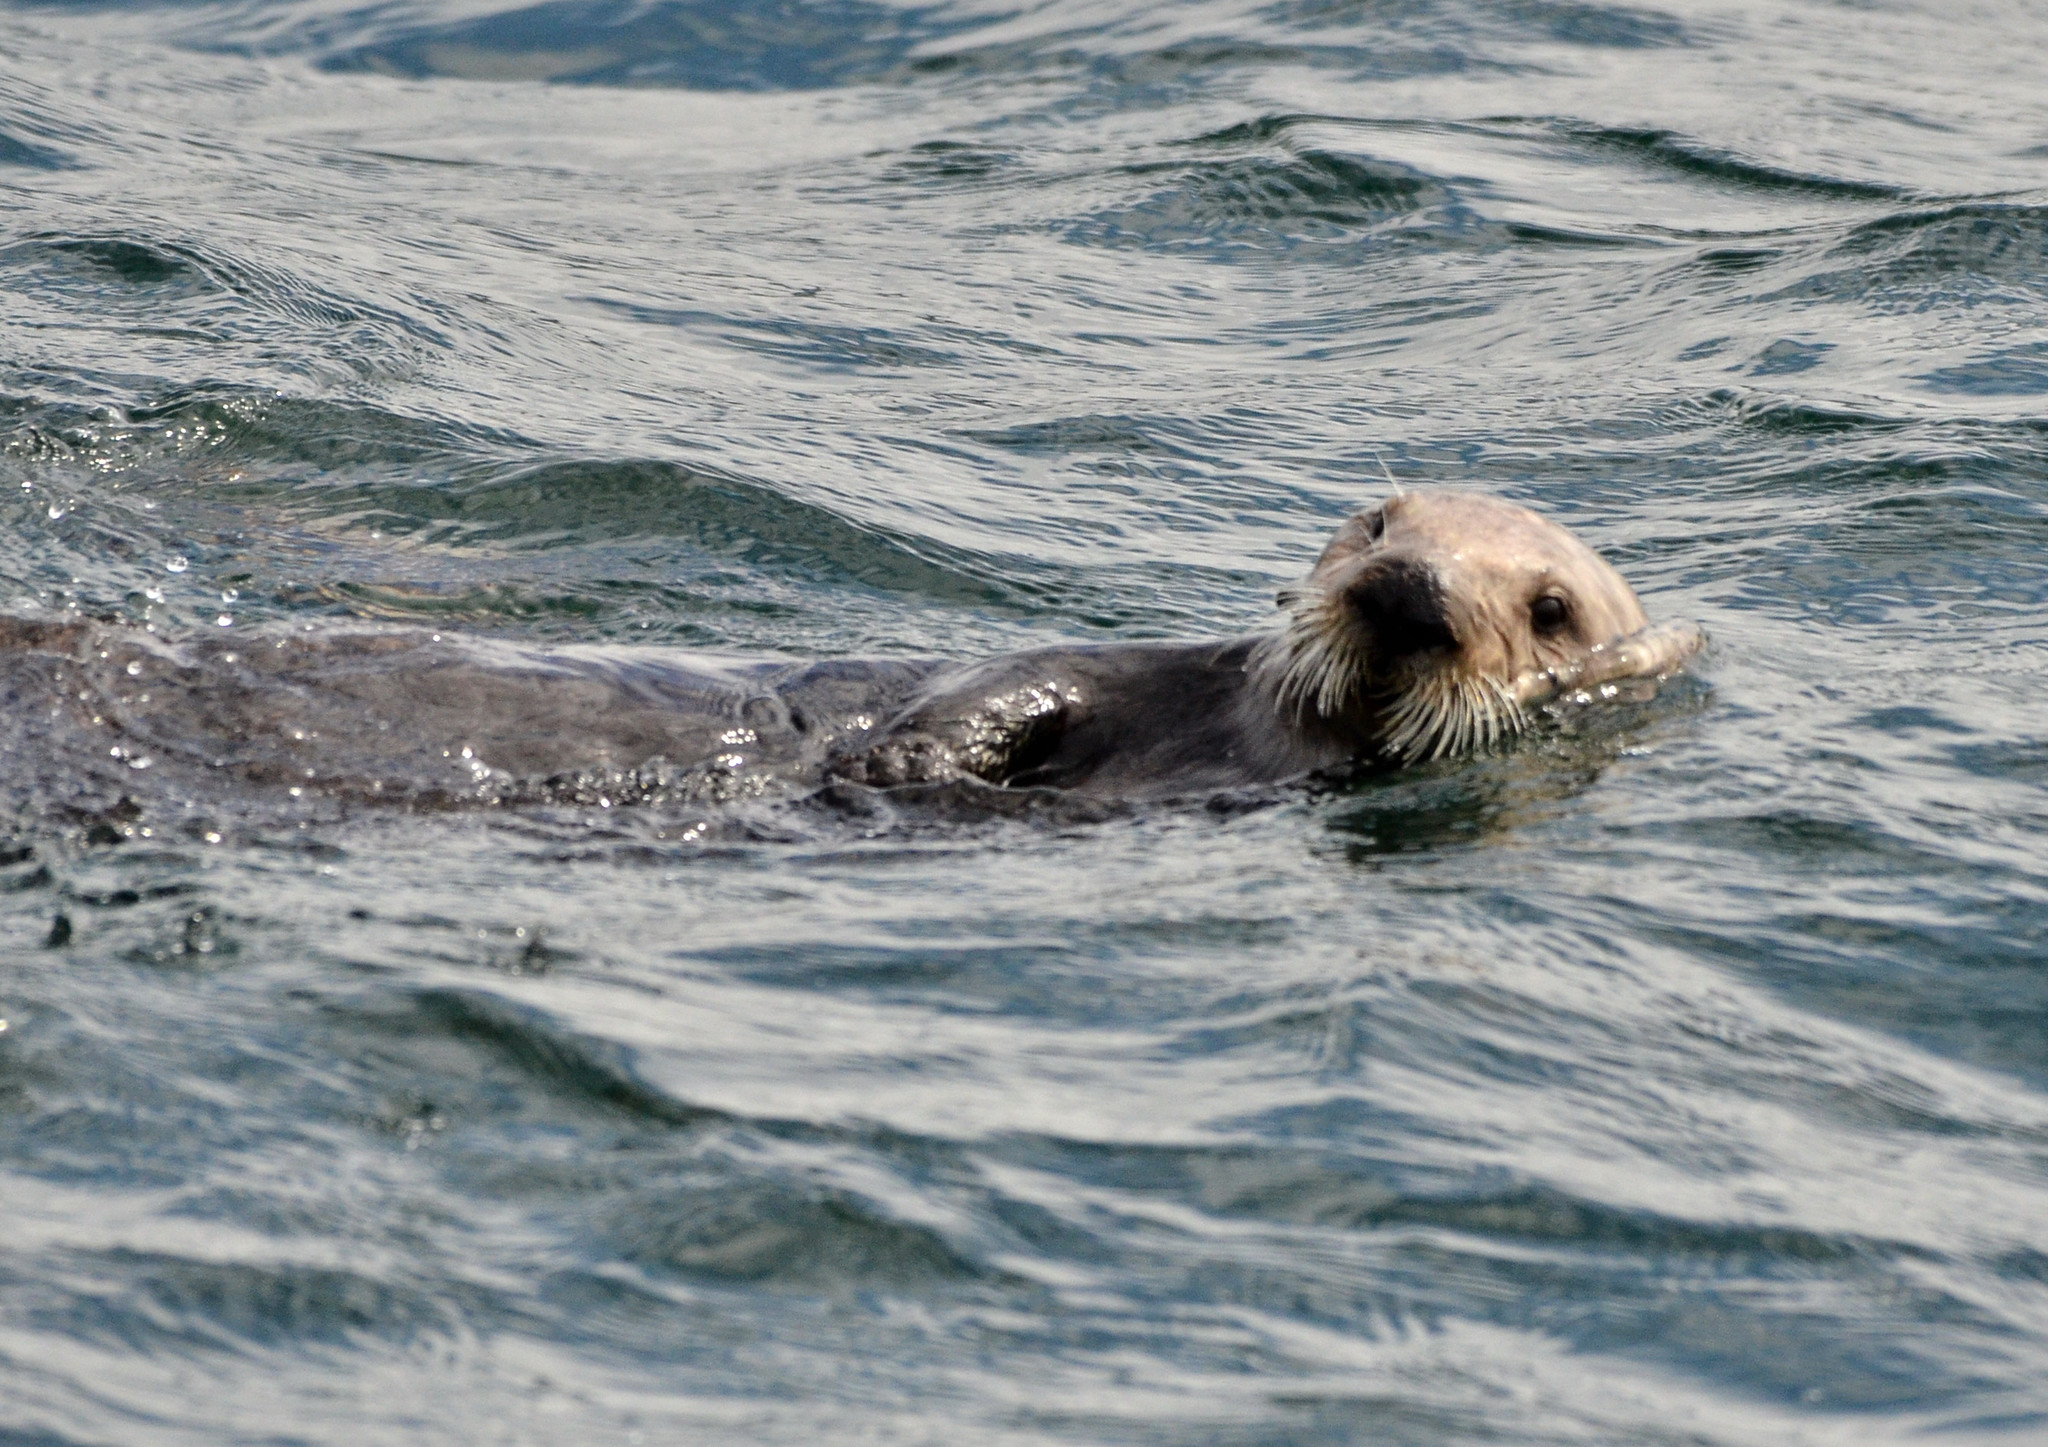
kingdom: Animalia
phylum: Chordata
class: Mammalia
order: Carnivora
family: Mustelidae
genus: Enhydra
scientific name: Enhydra lutris
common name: Sea otter
